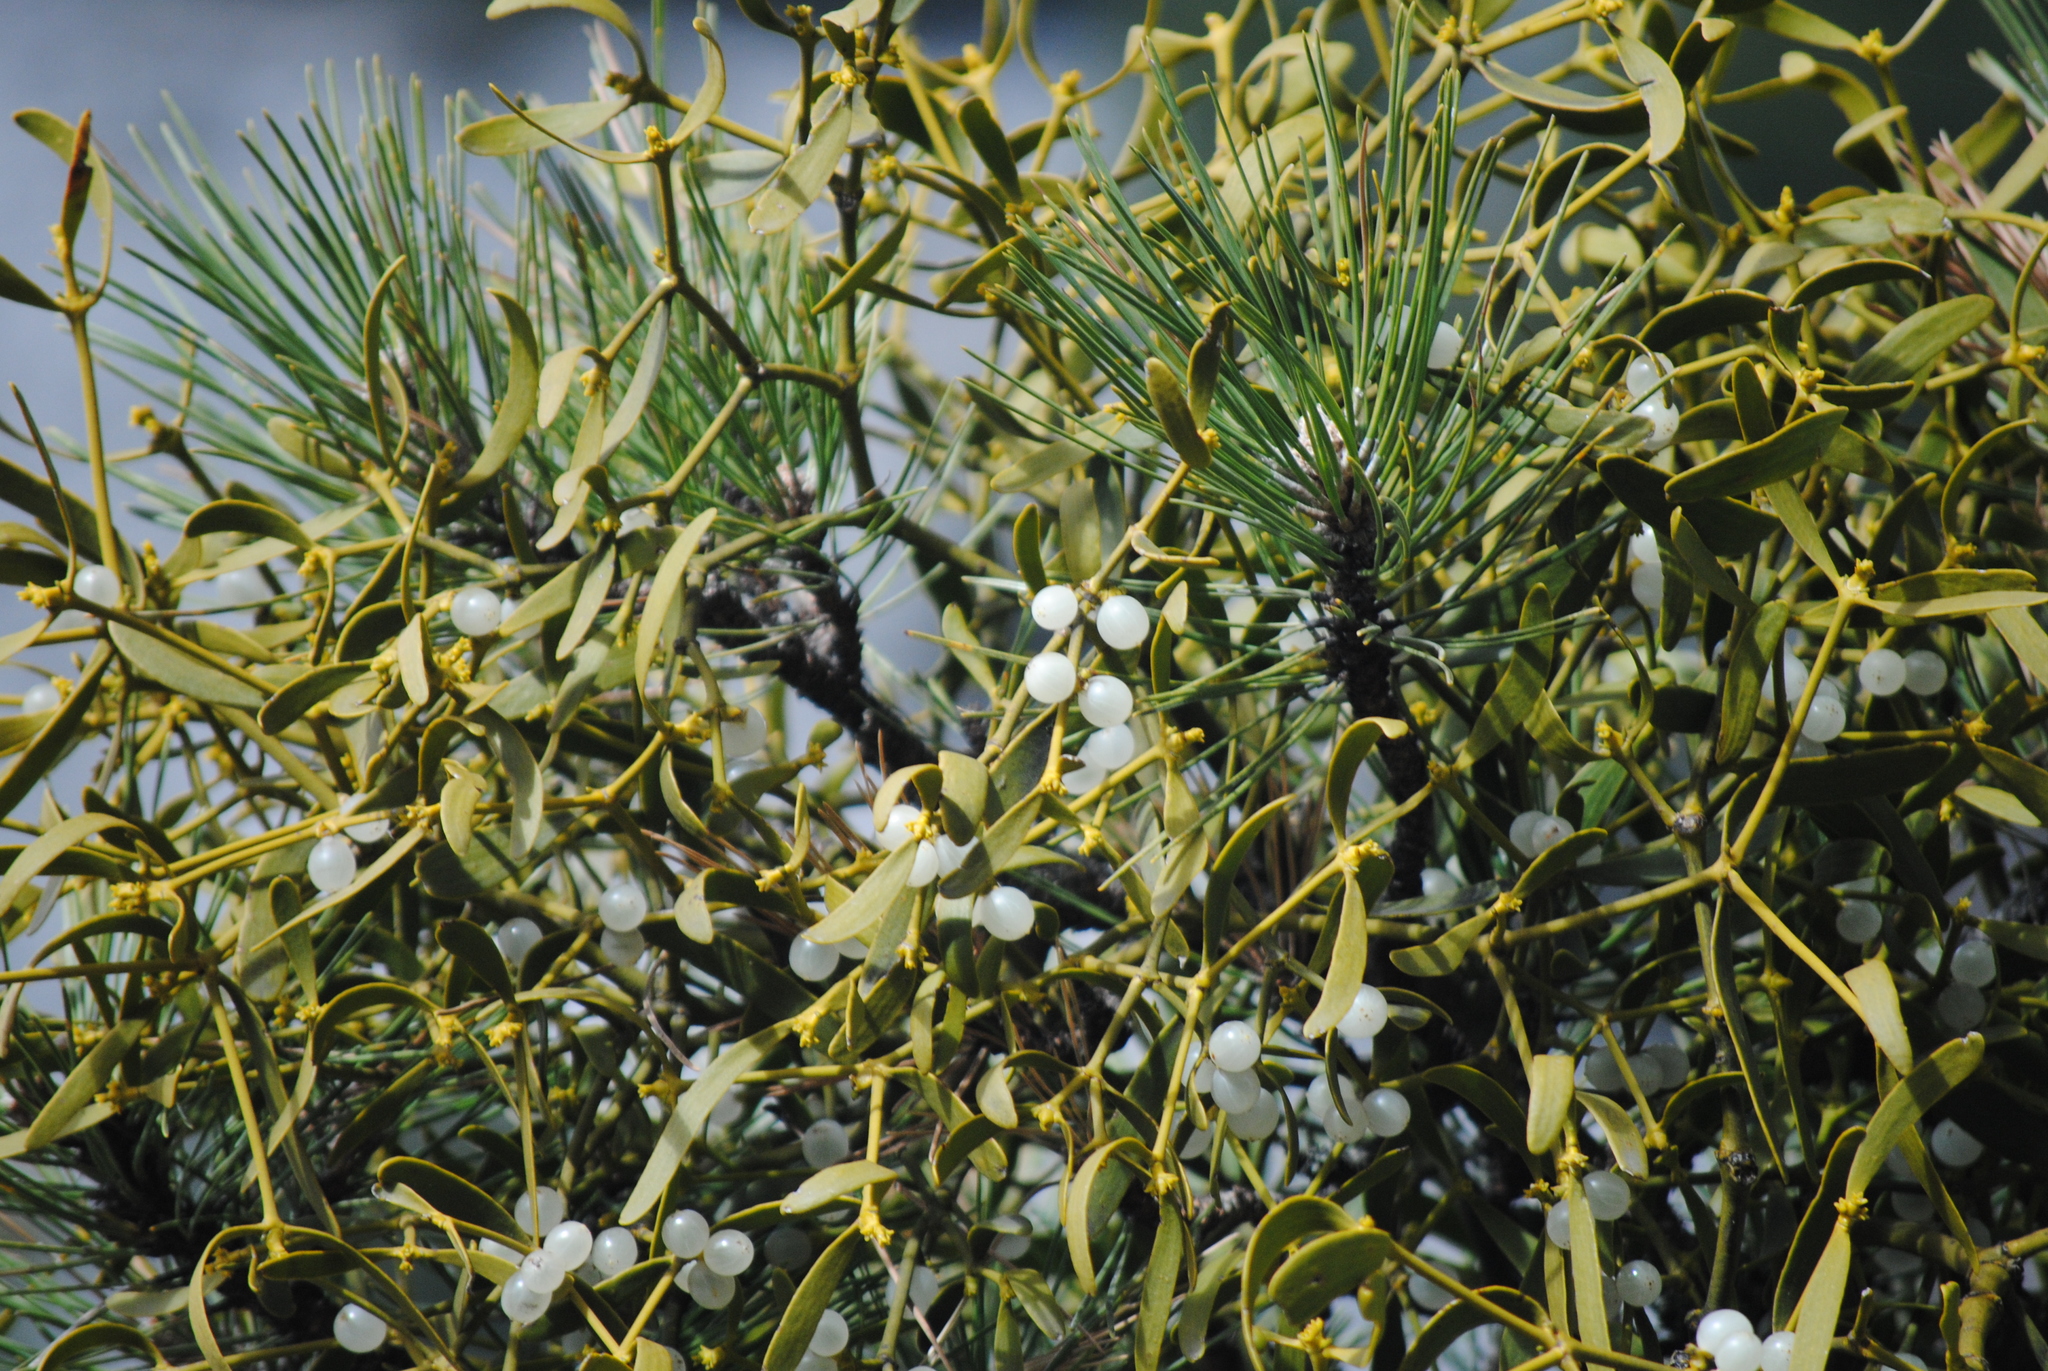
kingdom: Plantae
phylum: Tracheophyta
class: Magnoliopsida
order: Santalales
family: Viscaceae
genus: Viscum
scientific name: Viscum album
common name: Mistletoe
